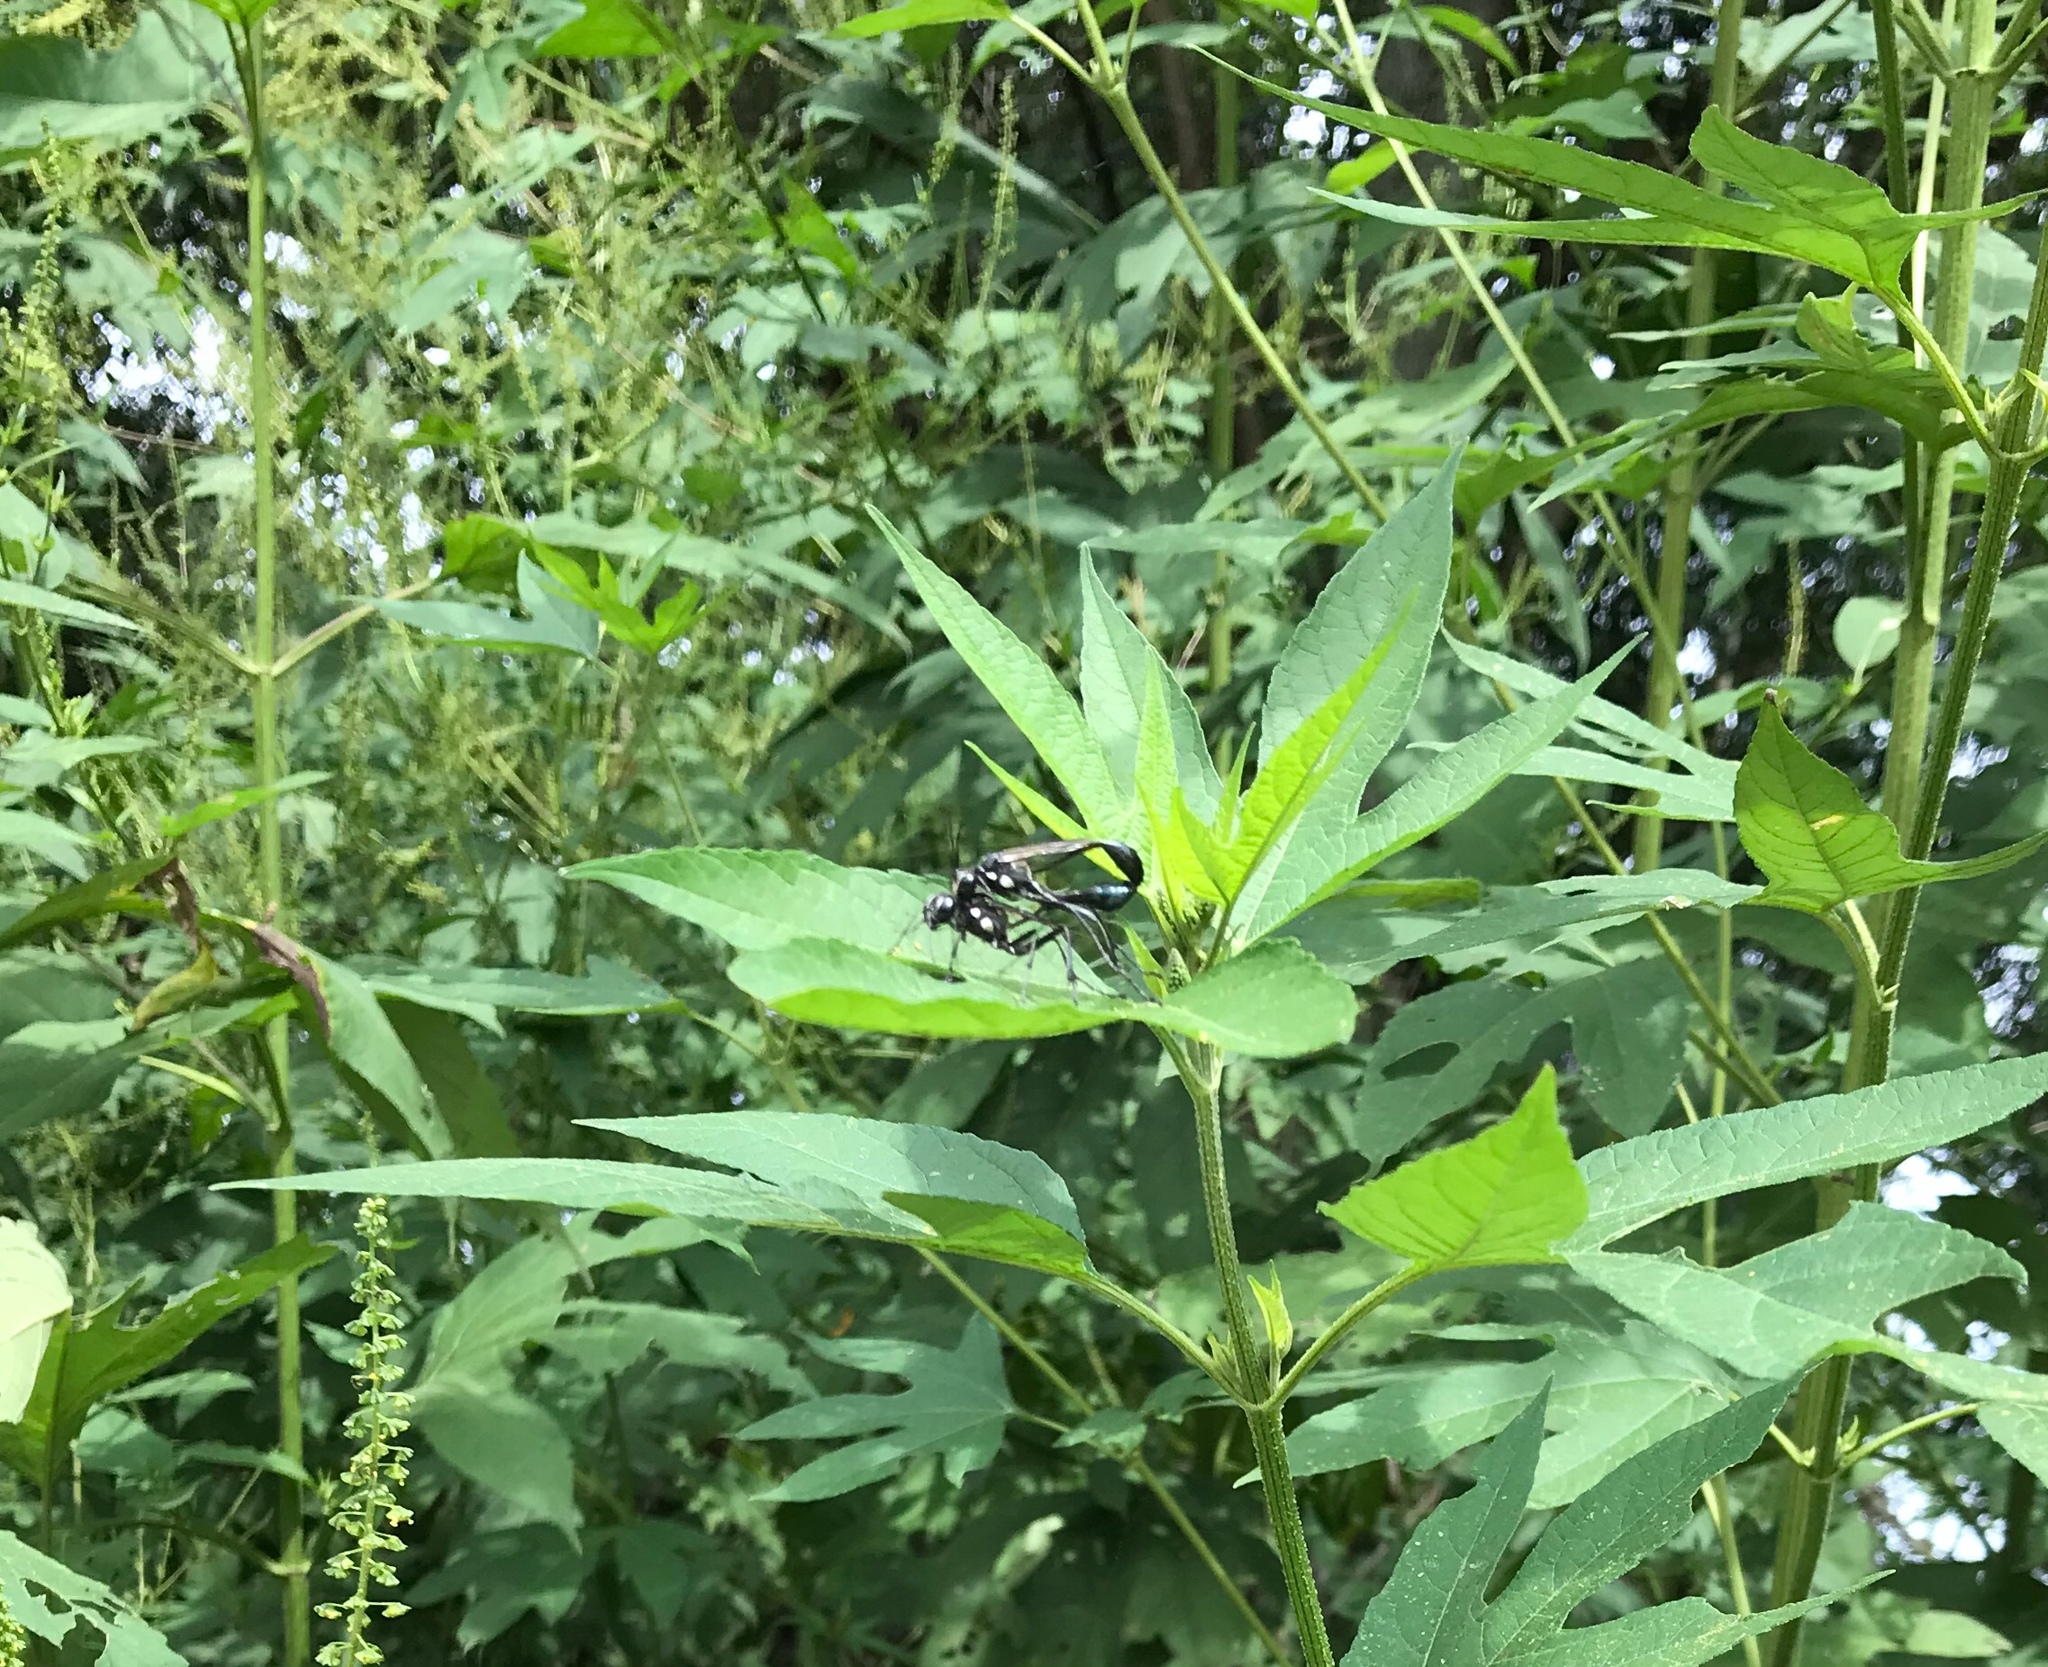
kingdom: Animalia
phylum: Arthropoda
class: Insecta
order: Hymenoptera
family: Sphecidae
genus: Eremnophila
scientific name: Eremnophila aureonotata
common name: Gold-marked thread-waisted wasp
